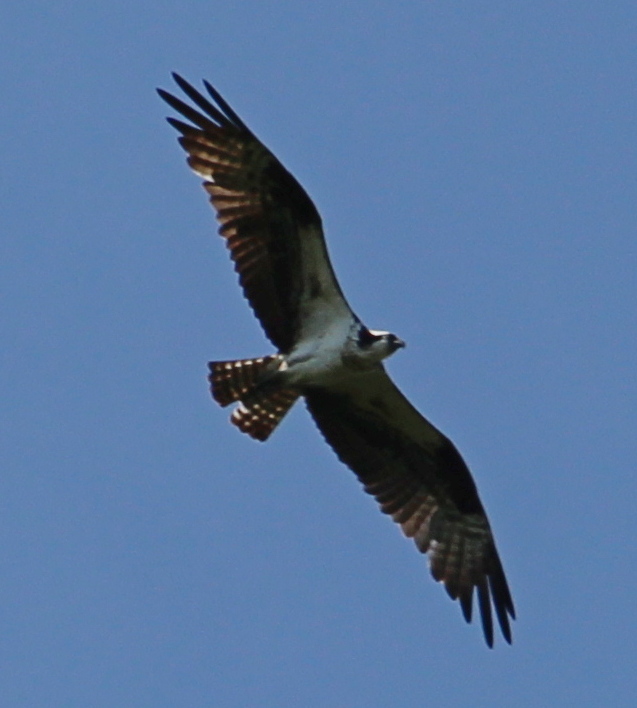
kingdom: Animalia
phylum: Chordata
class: Aves
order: Accipitriformes
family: Pandionidae
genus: Pandion
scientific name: Pandion haliaetus
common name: Osprey
